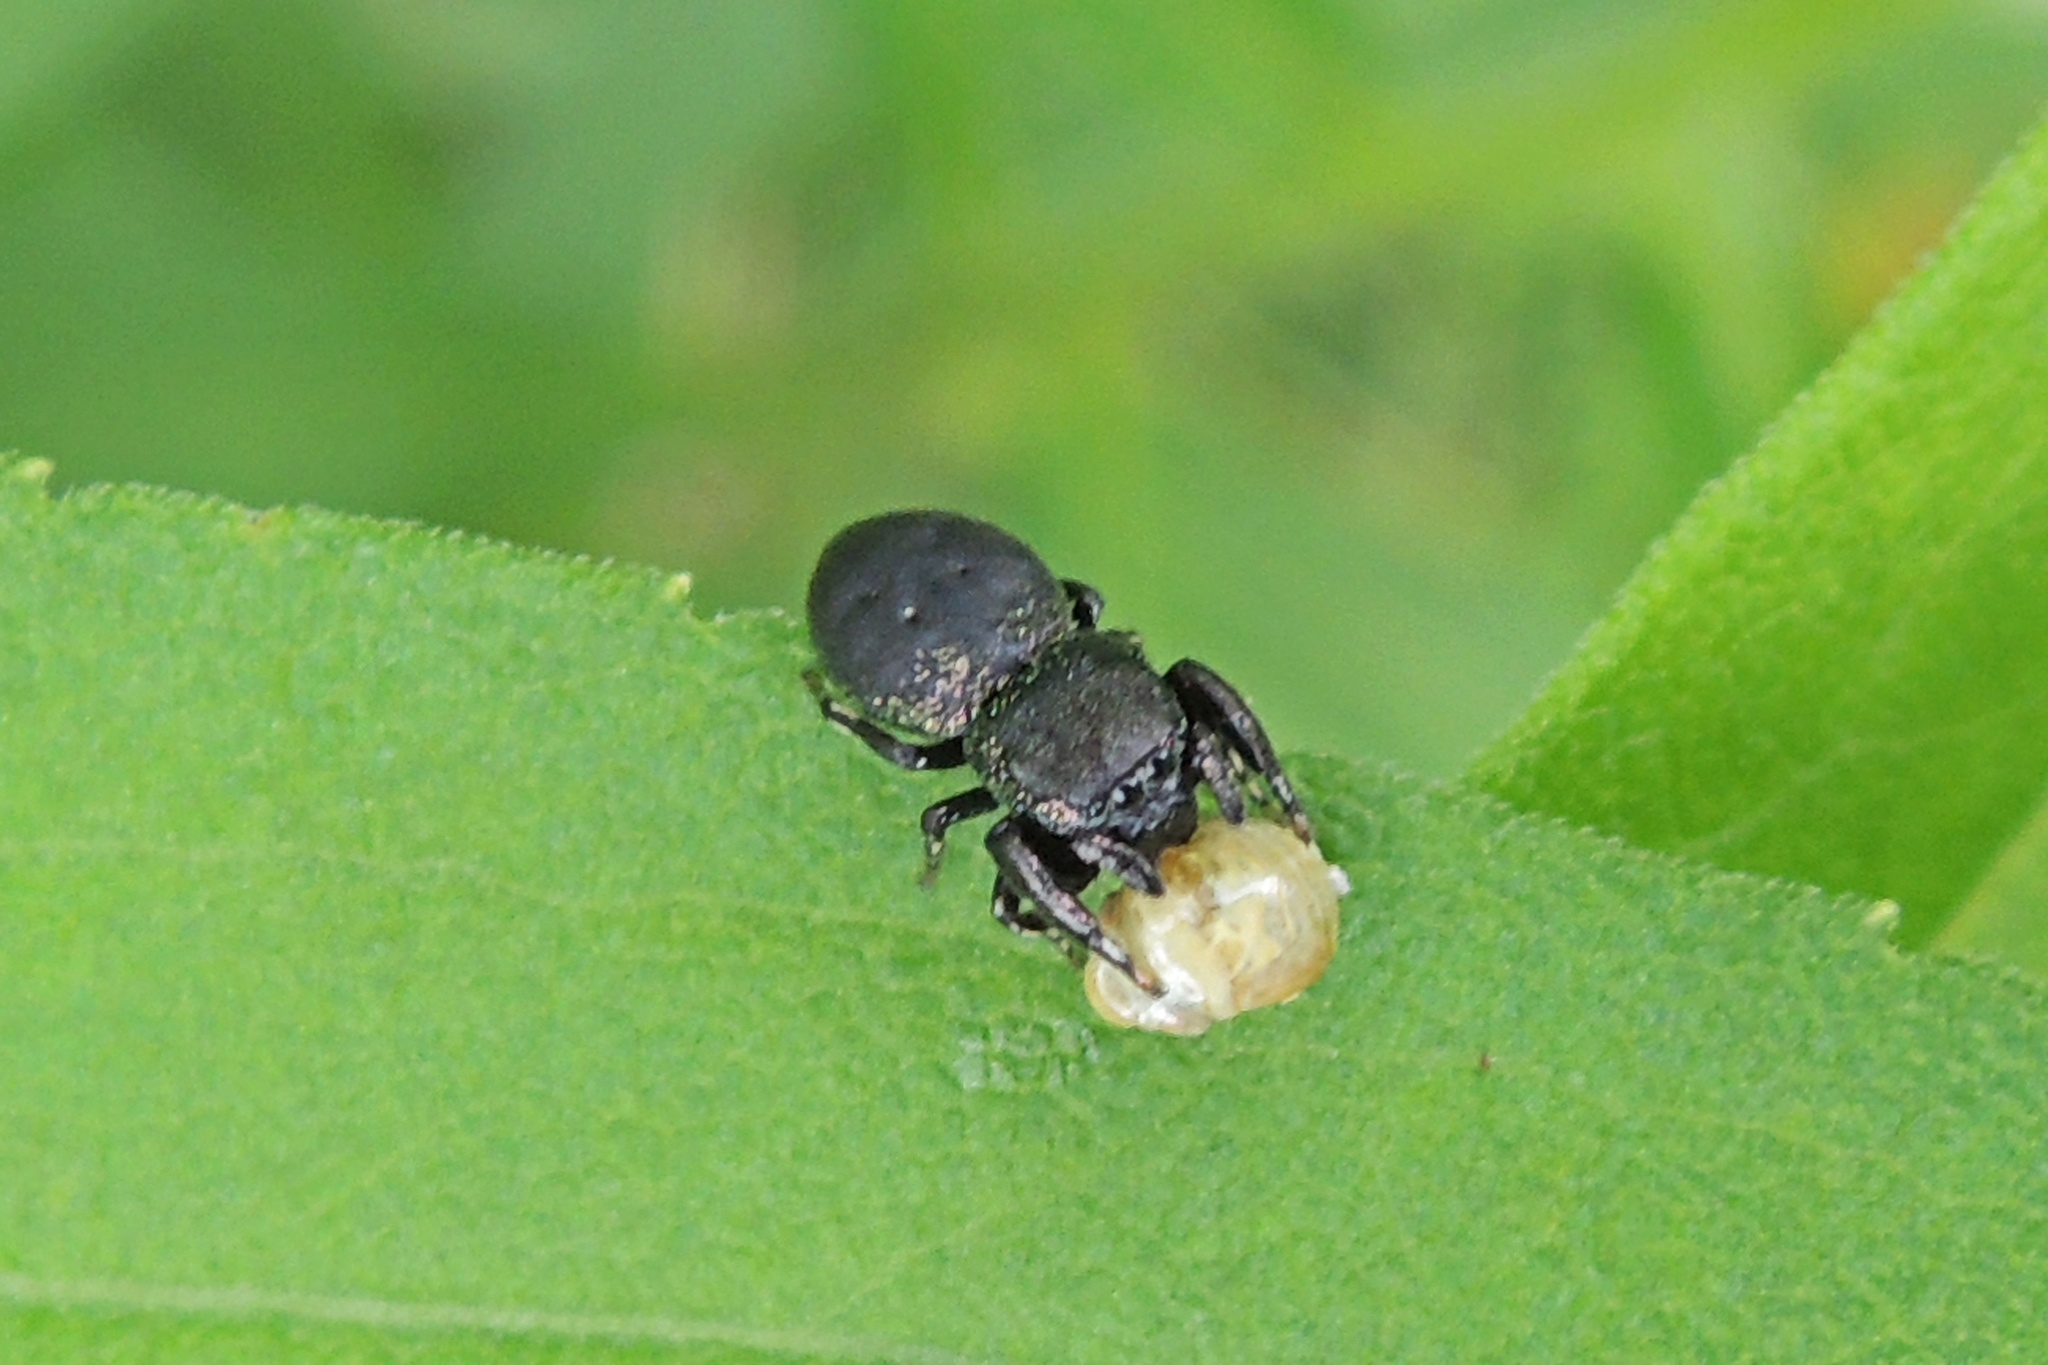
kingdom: Animalia
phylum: Arthropoda
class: Arachnida
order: Araneae
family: Salticidae
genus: Sassacus
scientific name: Sassacus cyaneus
